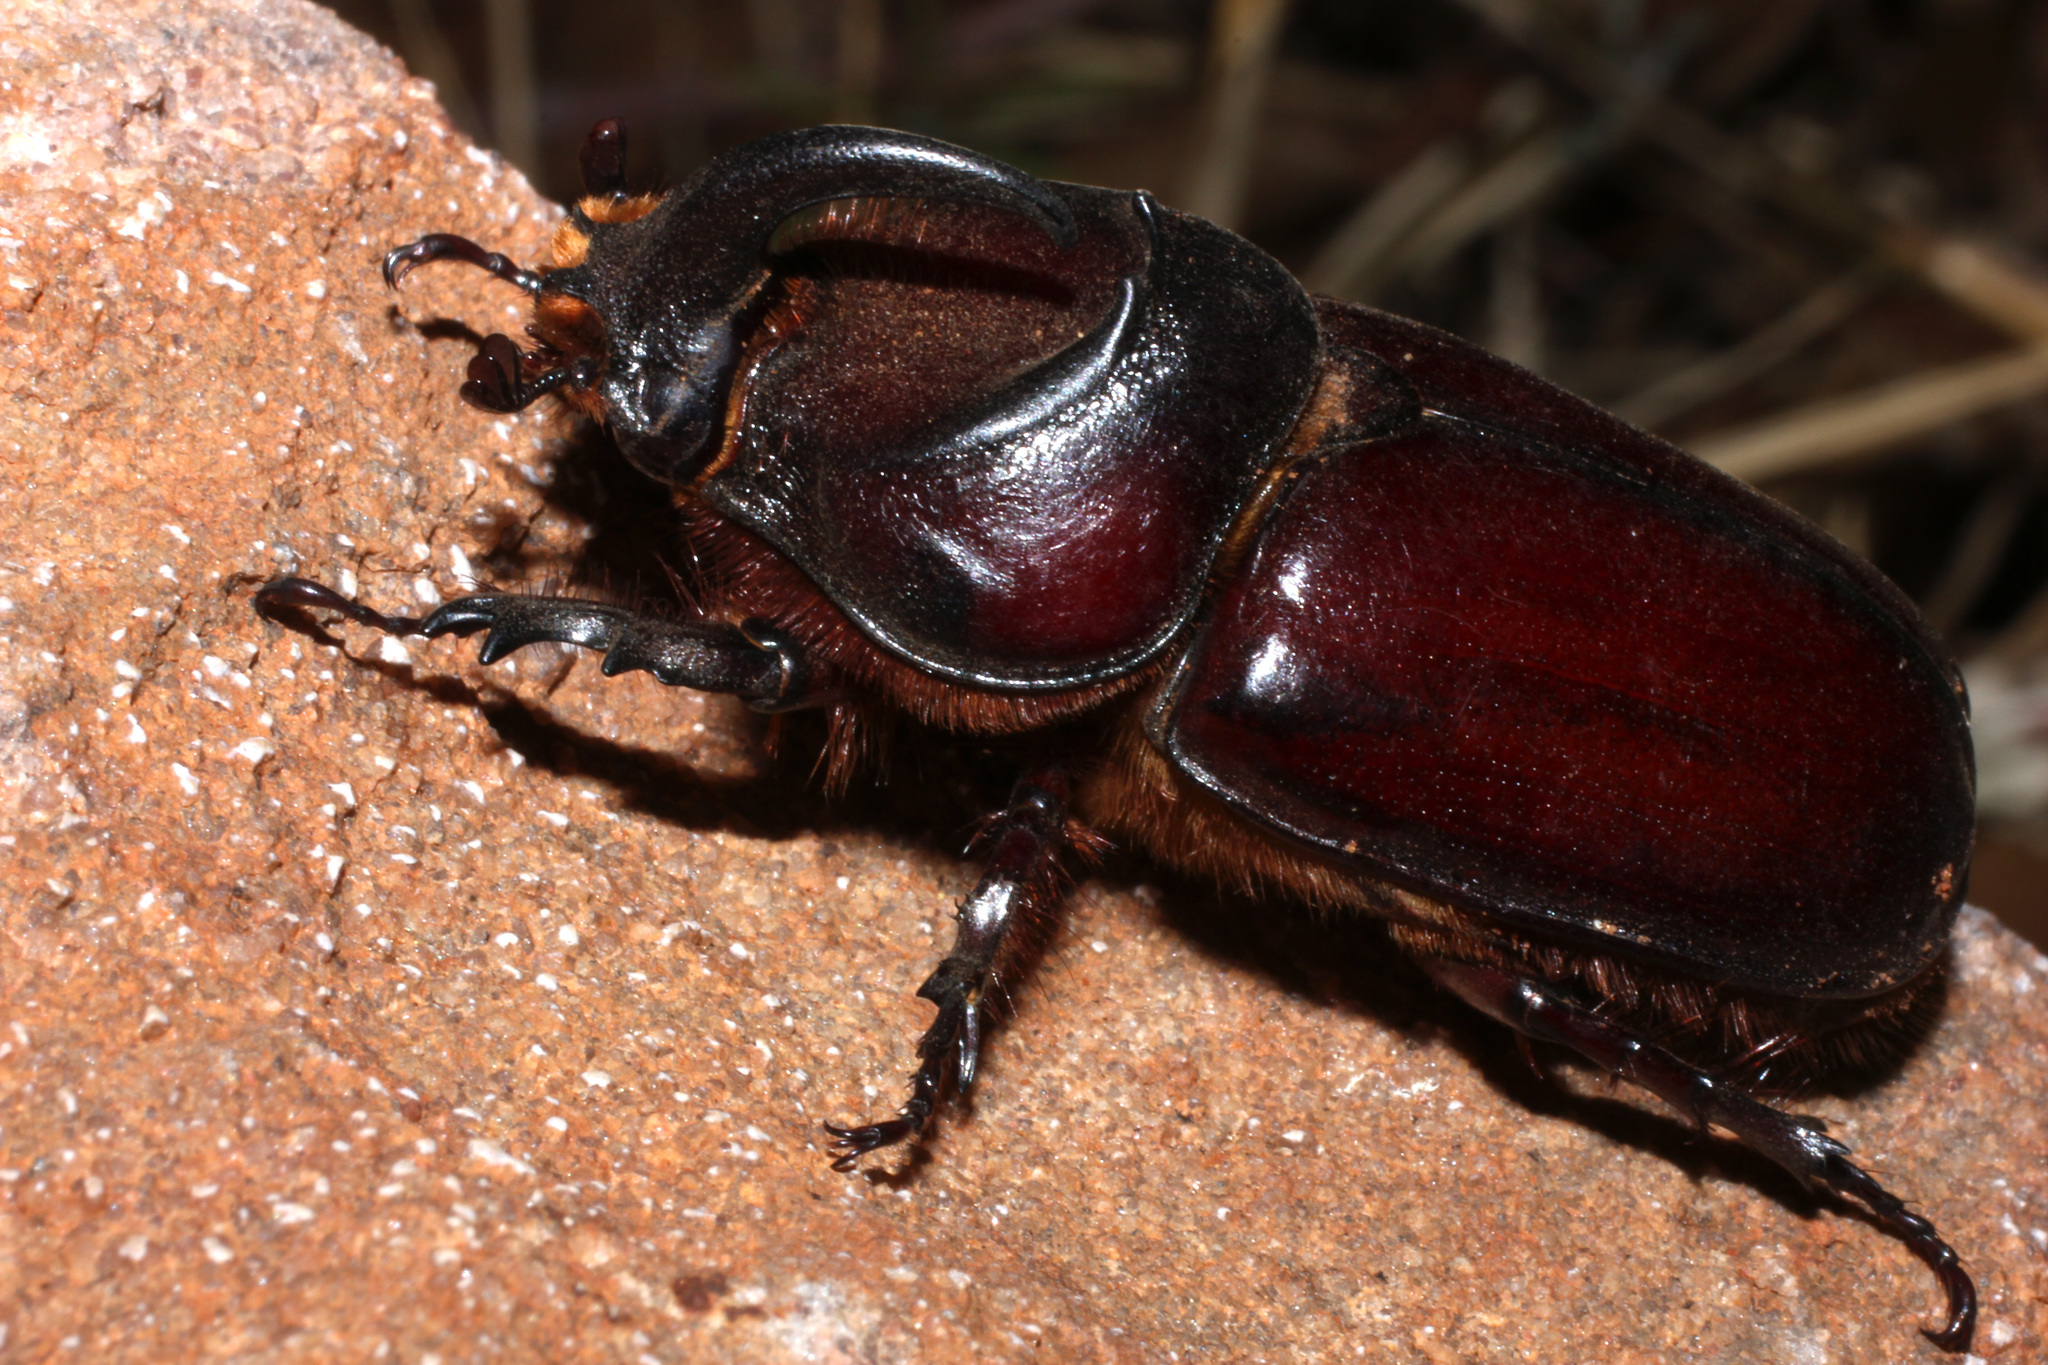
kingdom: Animalia
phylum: Arthropoda
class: Insecta
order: Coleoptera
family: Scarabaeidae
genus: Oryctes
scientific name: Oryctes boas
